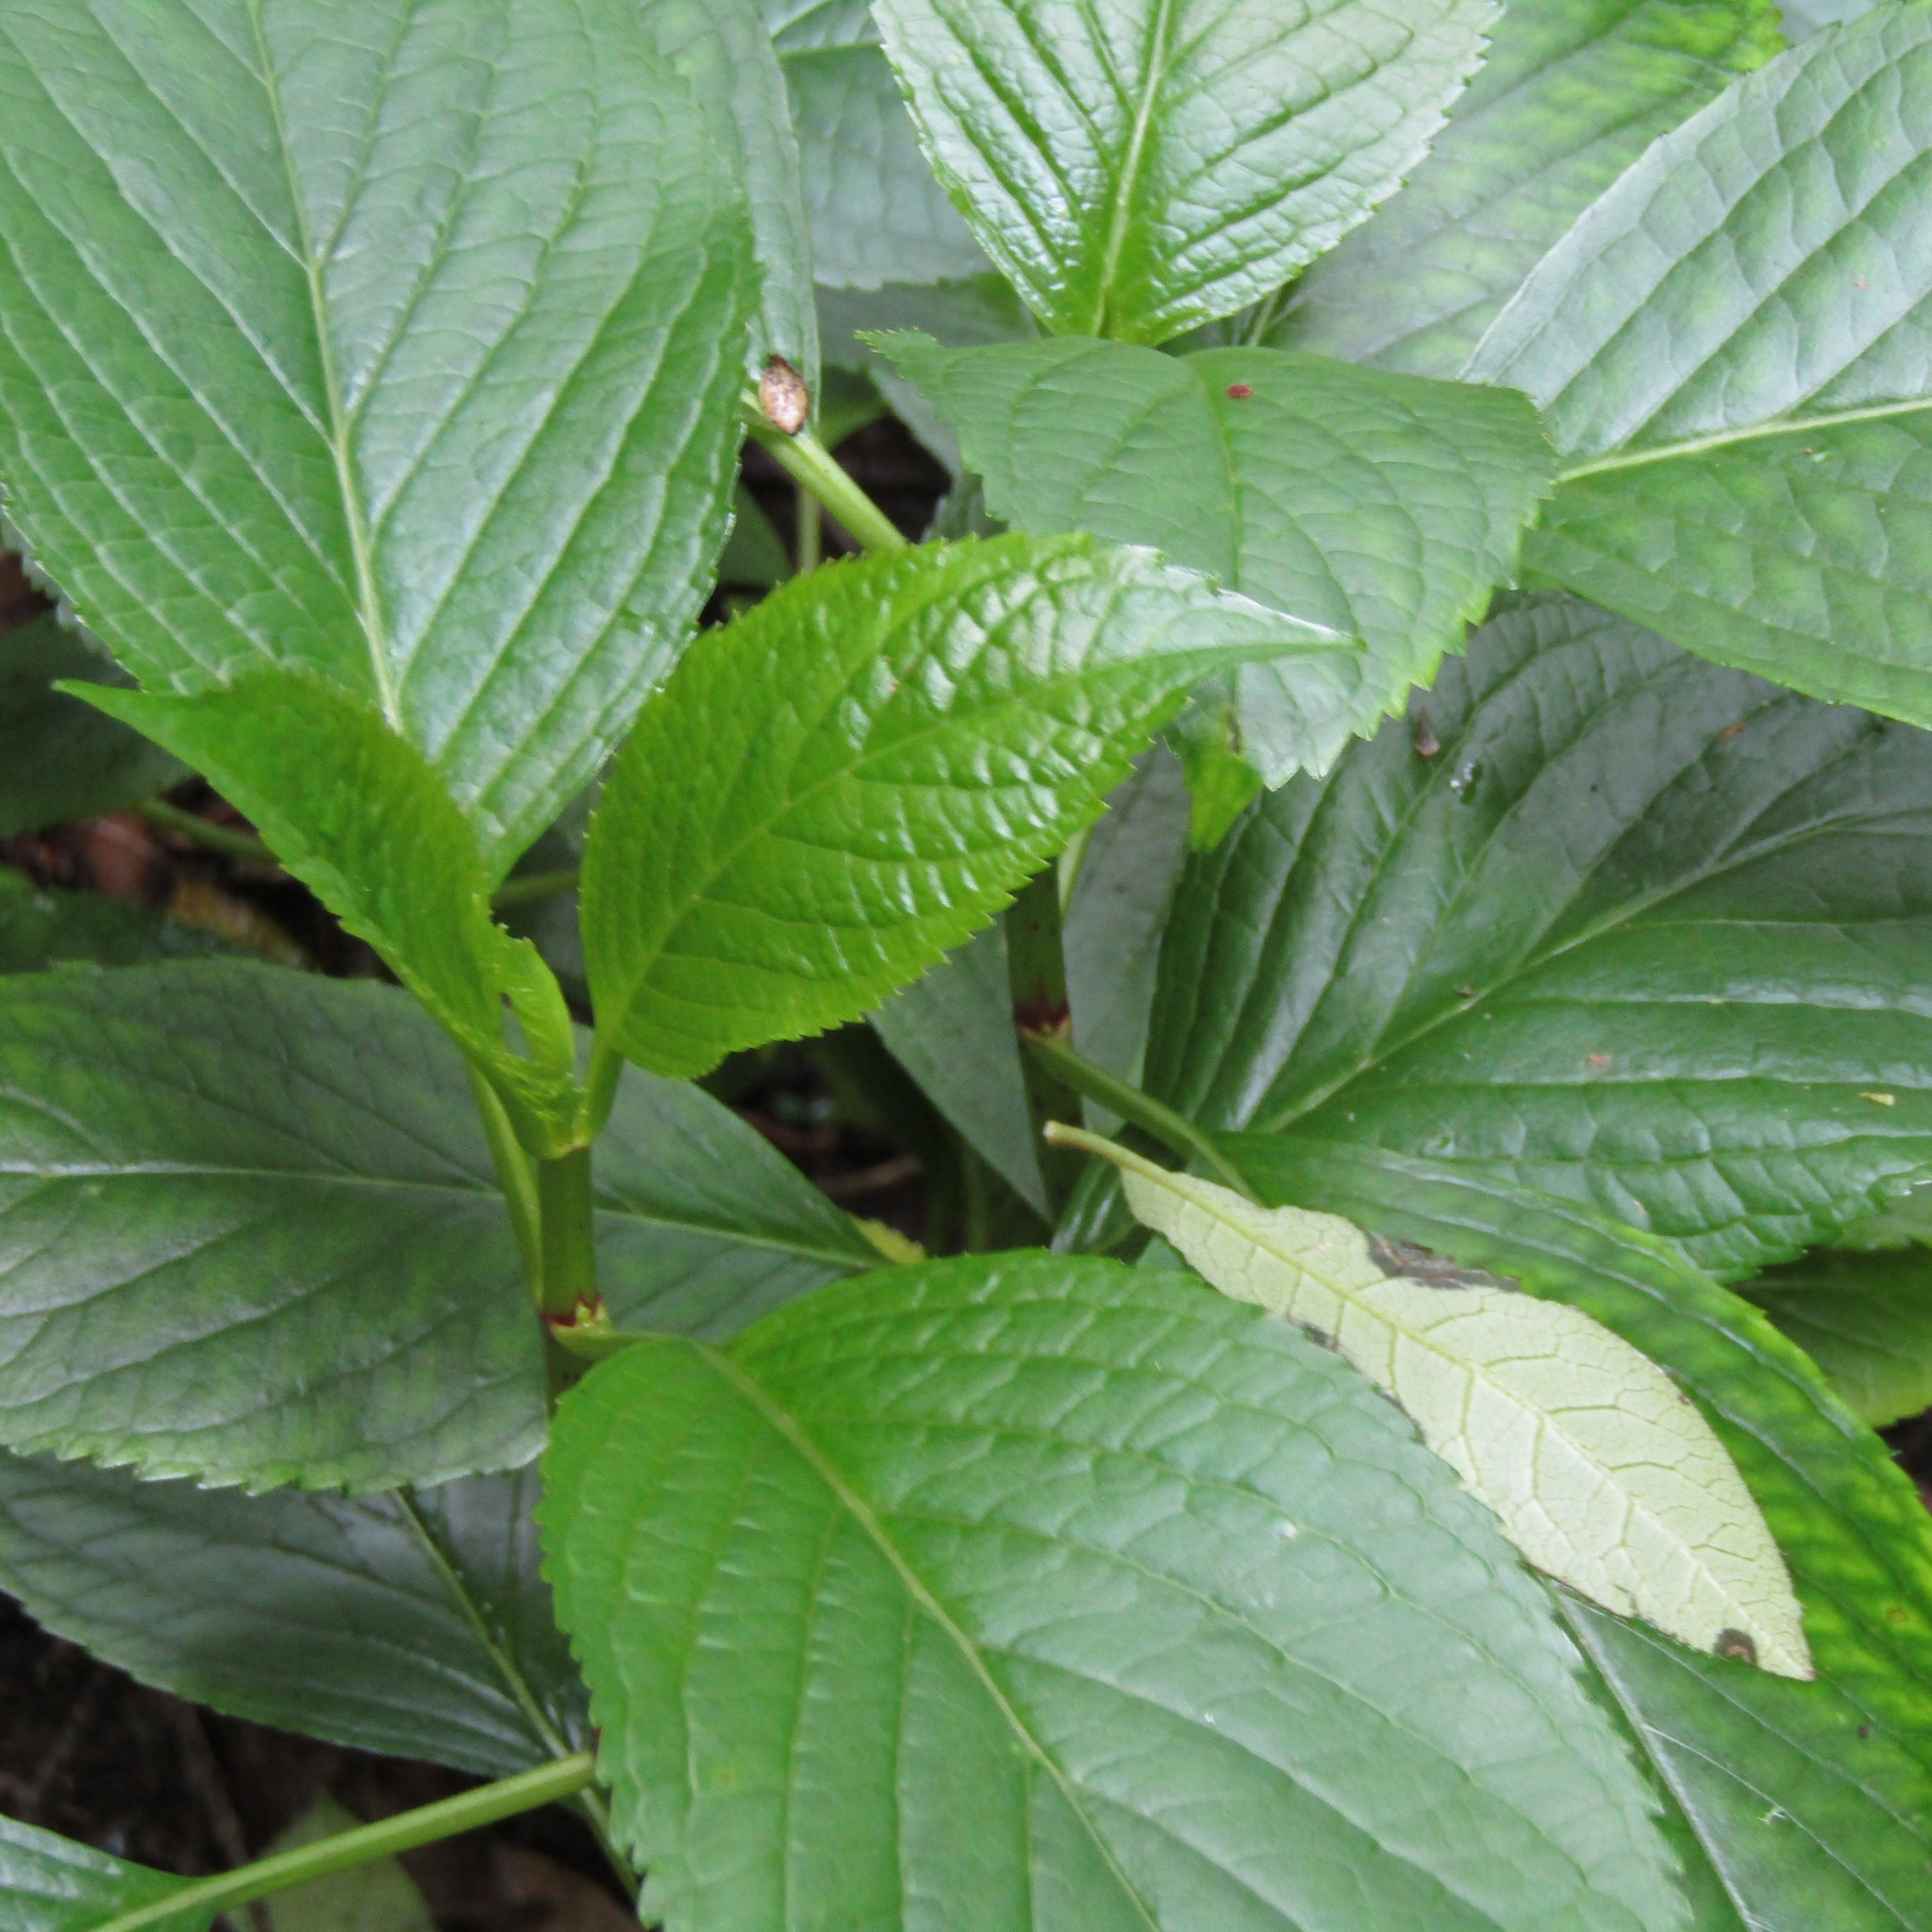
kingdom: Plantae
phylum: Tracheophyta
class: Magnoliopsida
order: Cornales
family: Hydrangeaceae
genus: Hydrangea
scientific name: Hydrangea macrophylla
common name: Hydrangea
